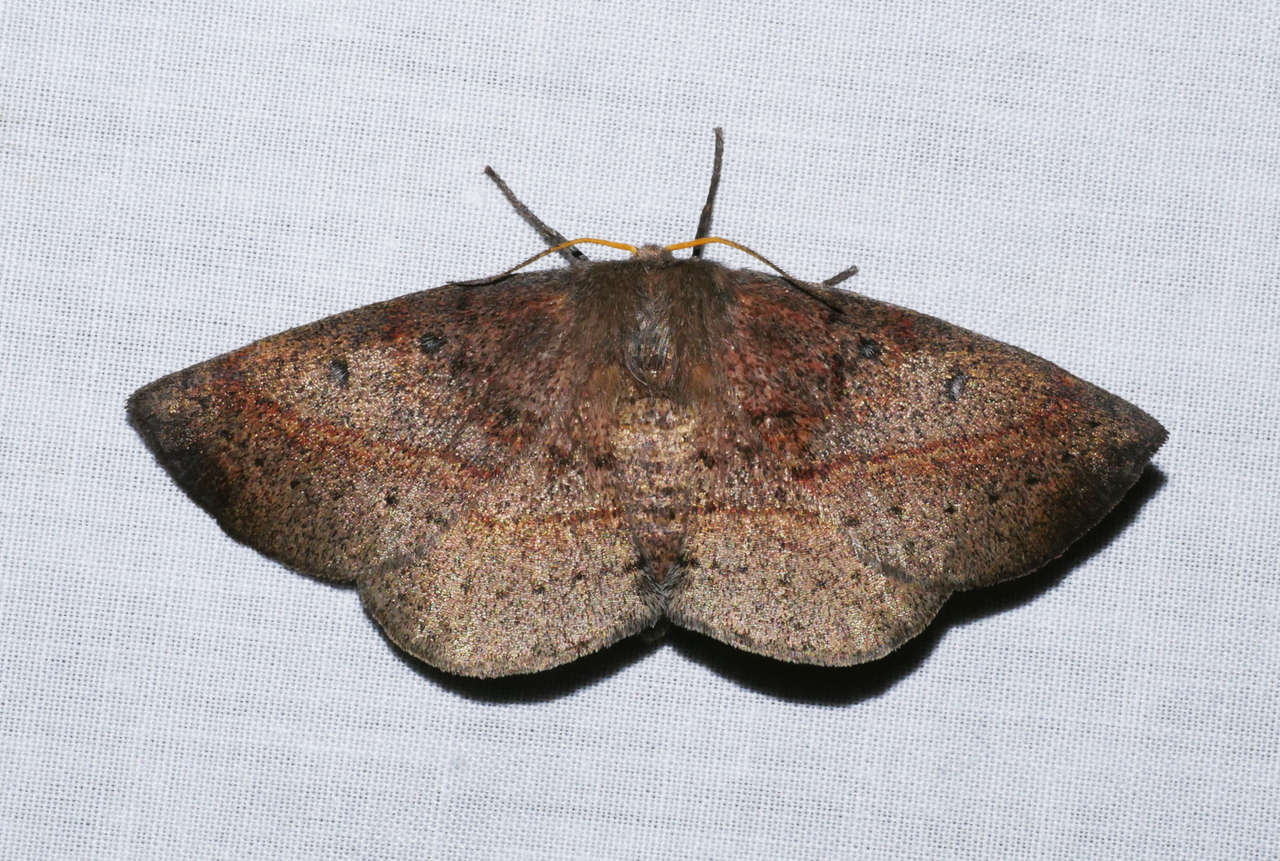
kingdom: Animalia
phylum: Arthropoda
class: Insecta
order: Lepidoptera
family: Anthelidae
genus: Anthela
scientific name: Anthela acuta
